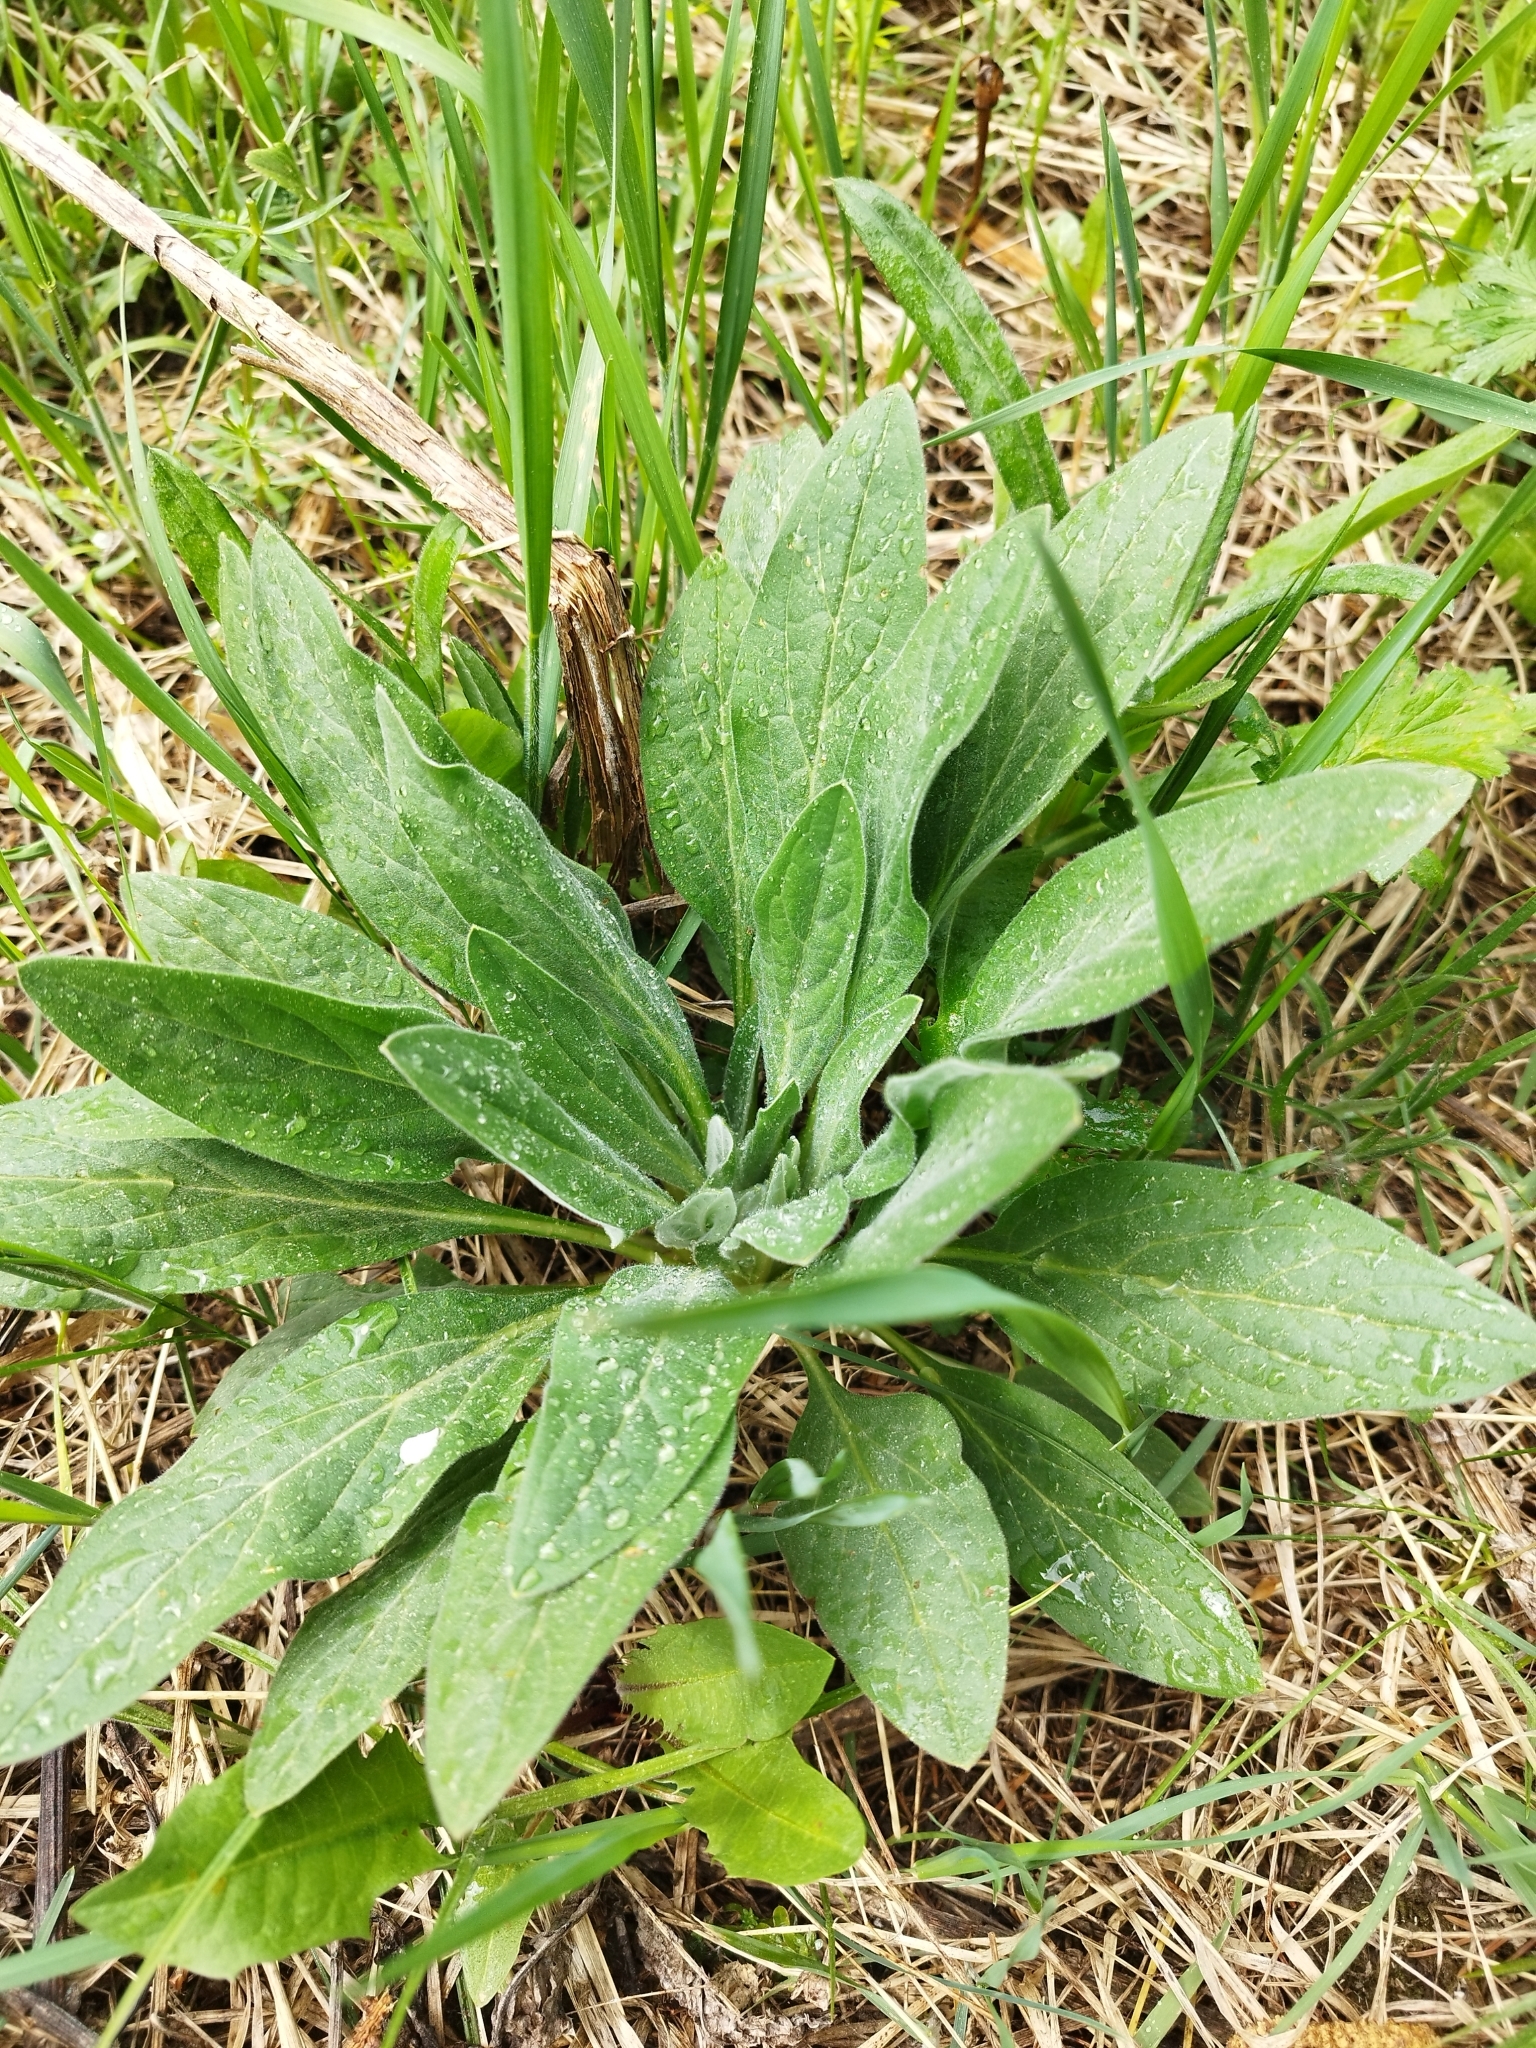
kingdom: Plantae
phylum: Tracheophyta
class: Magnoliopsida
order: Boraginales
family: Boraginaceae
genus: Cynoglossum
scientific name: Cynoglossum officinale
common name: Hound's-tongue
